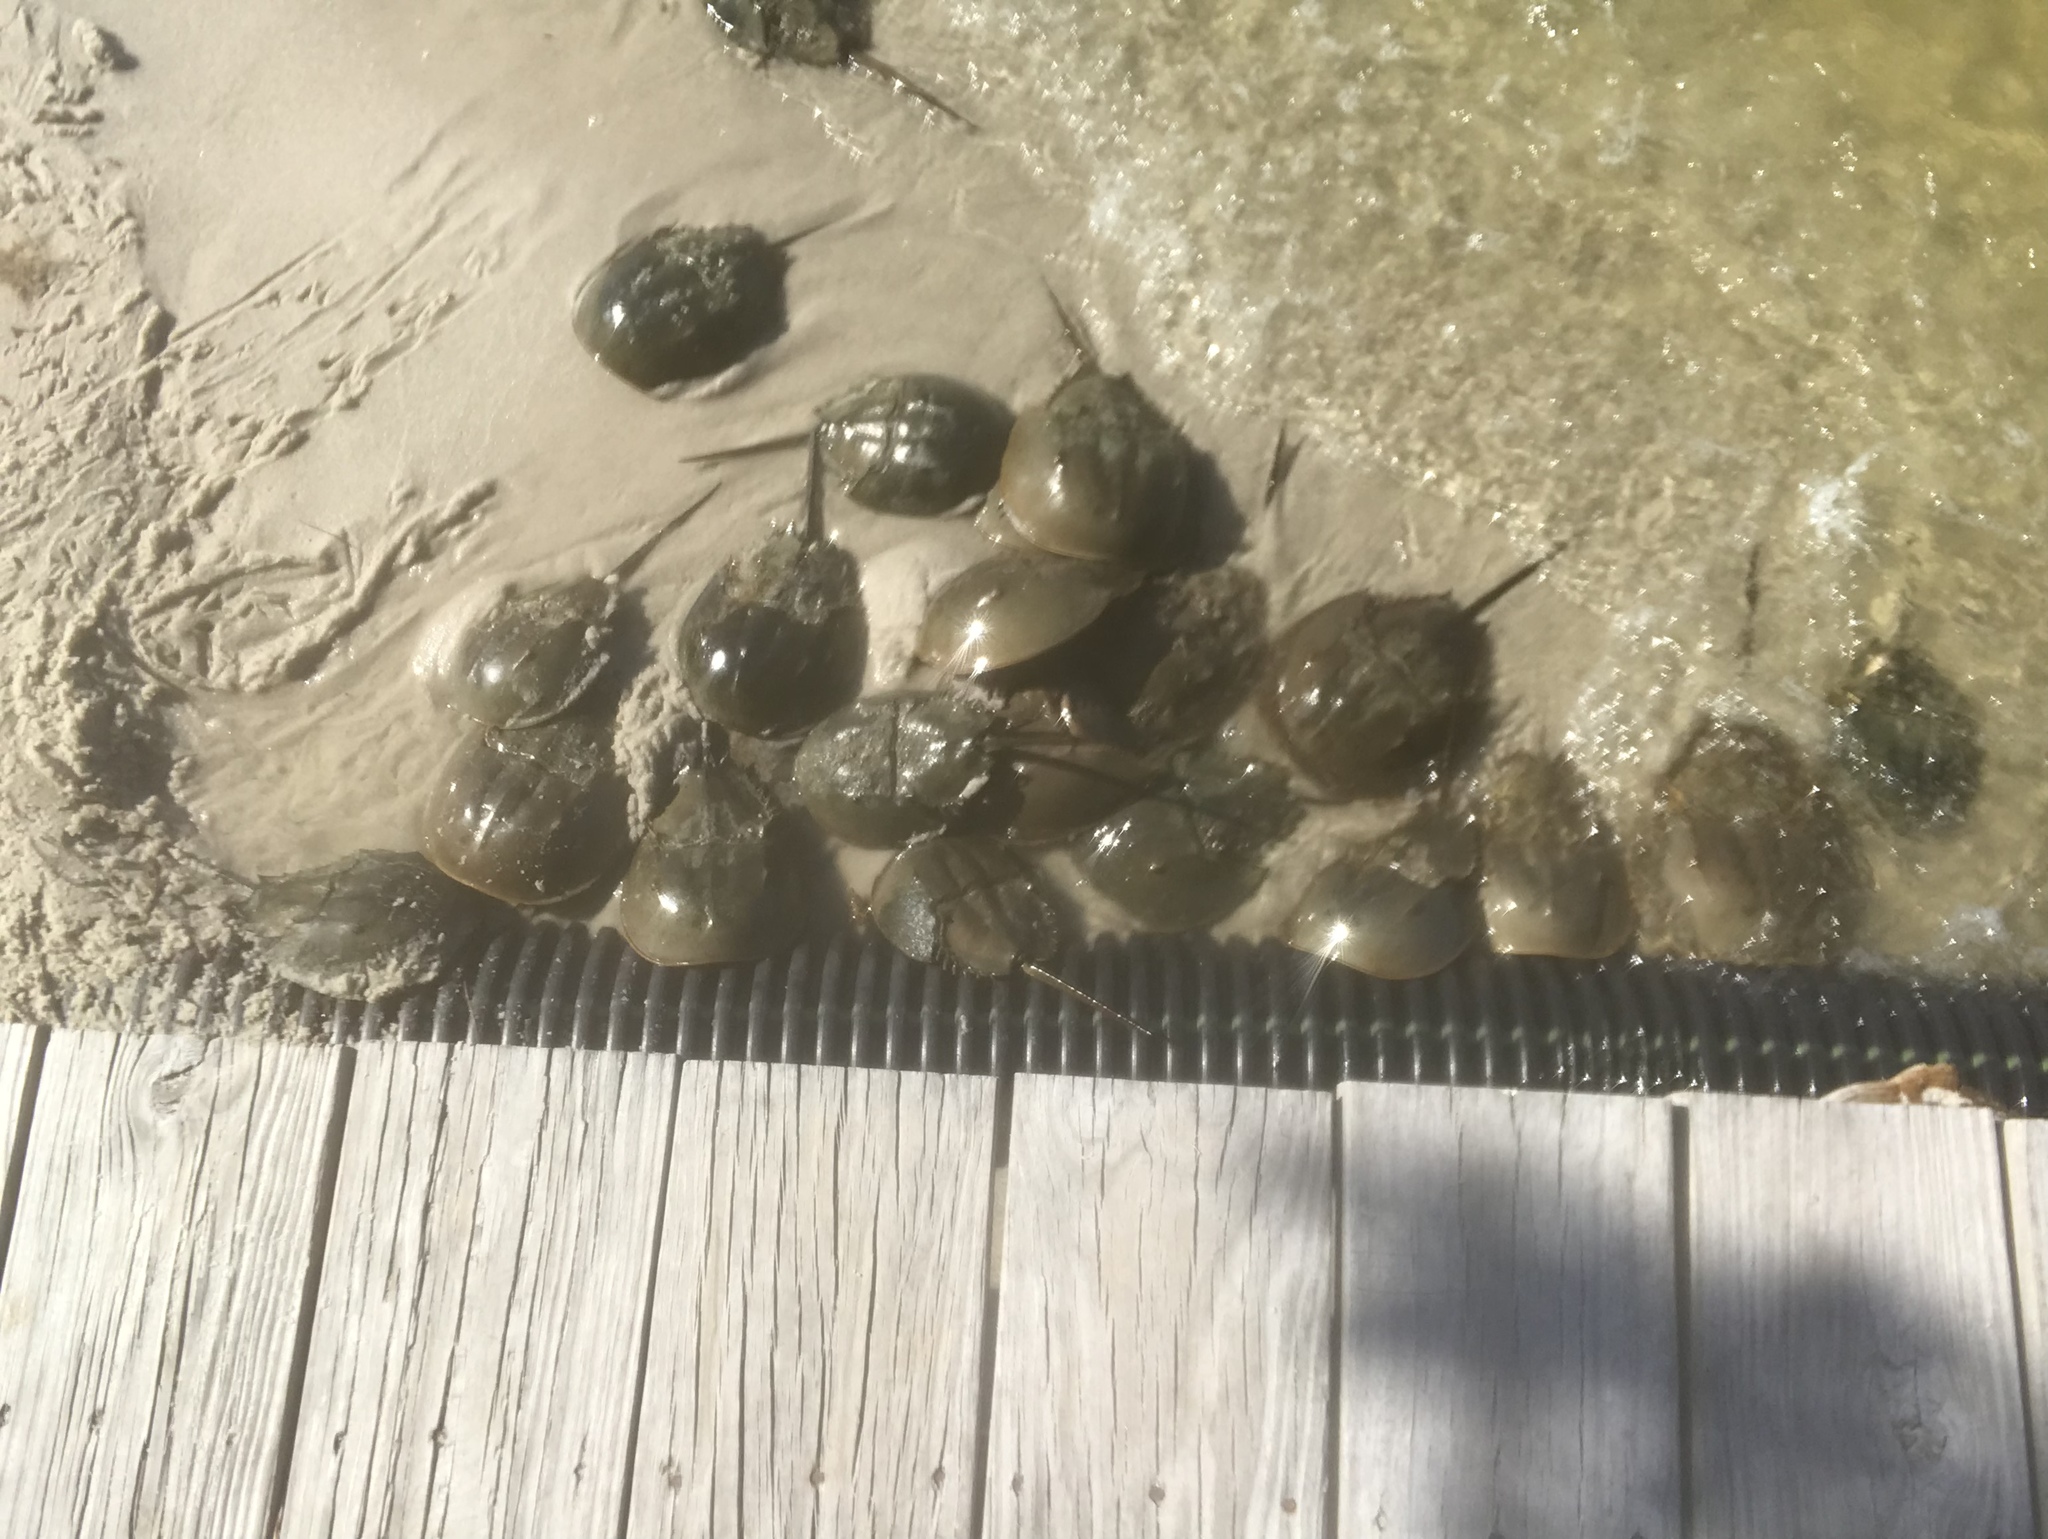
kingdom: Animalia
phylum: Arthropoda
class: Merostomata
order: Xiphosurida
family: Limulidae
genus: Limulus
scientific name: Limulus polyphemus
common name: Horseshoe crab
